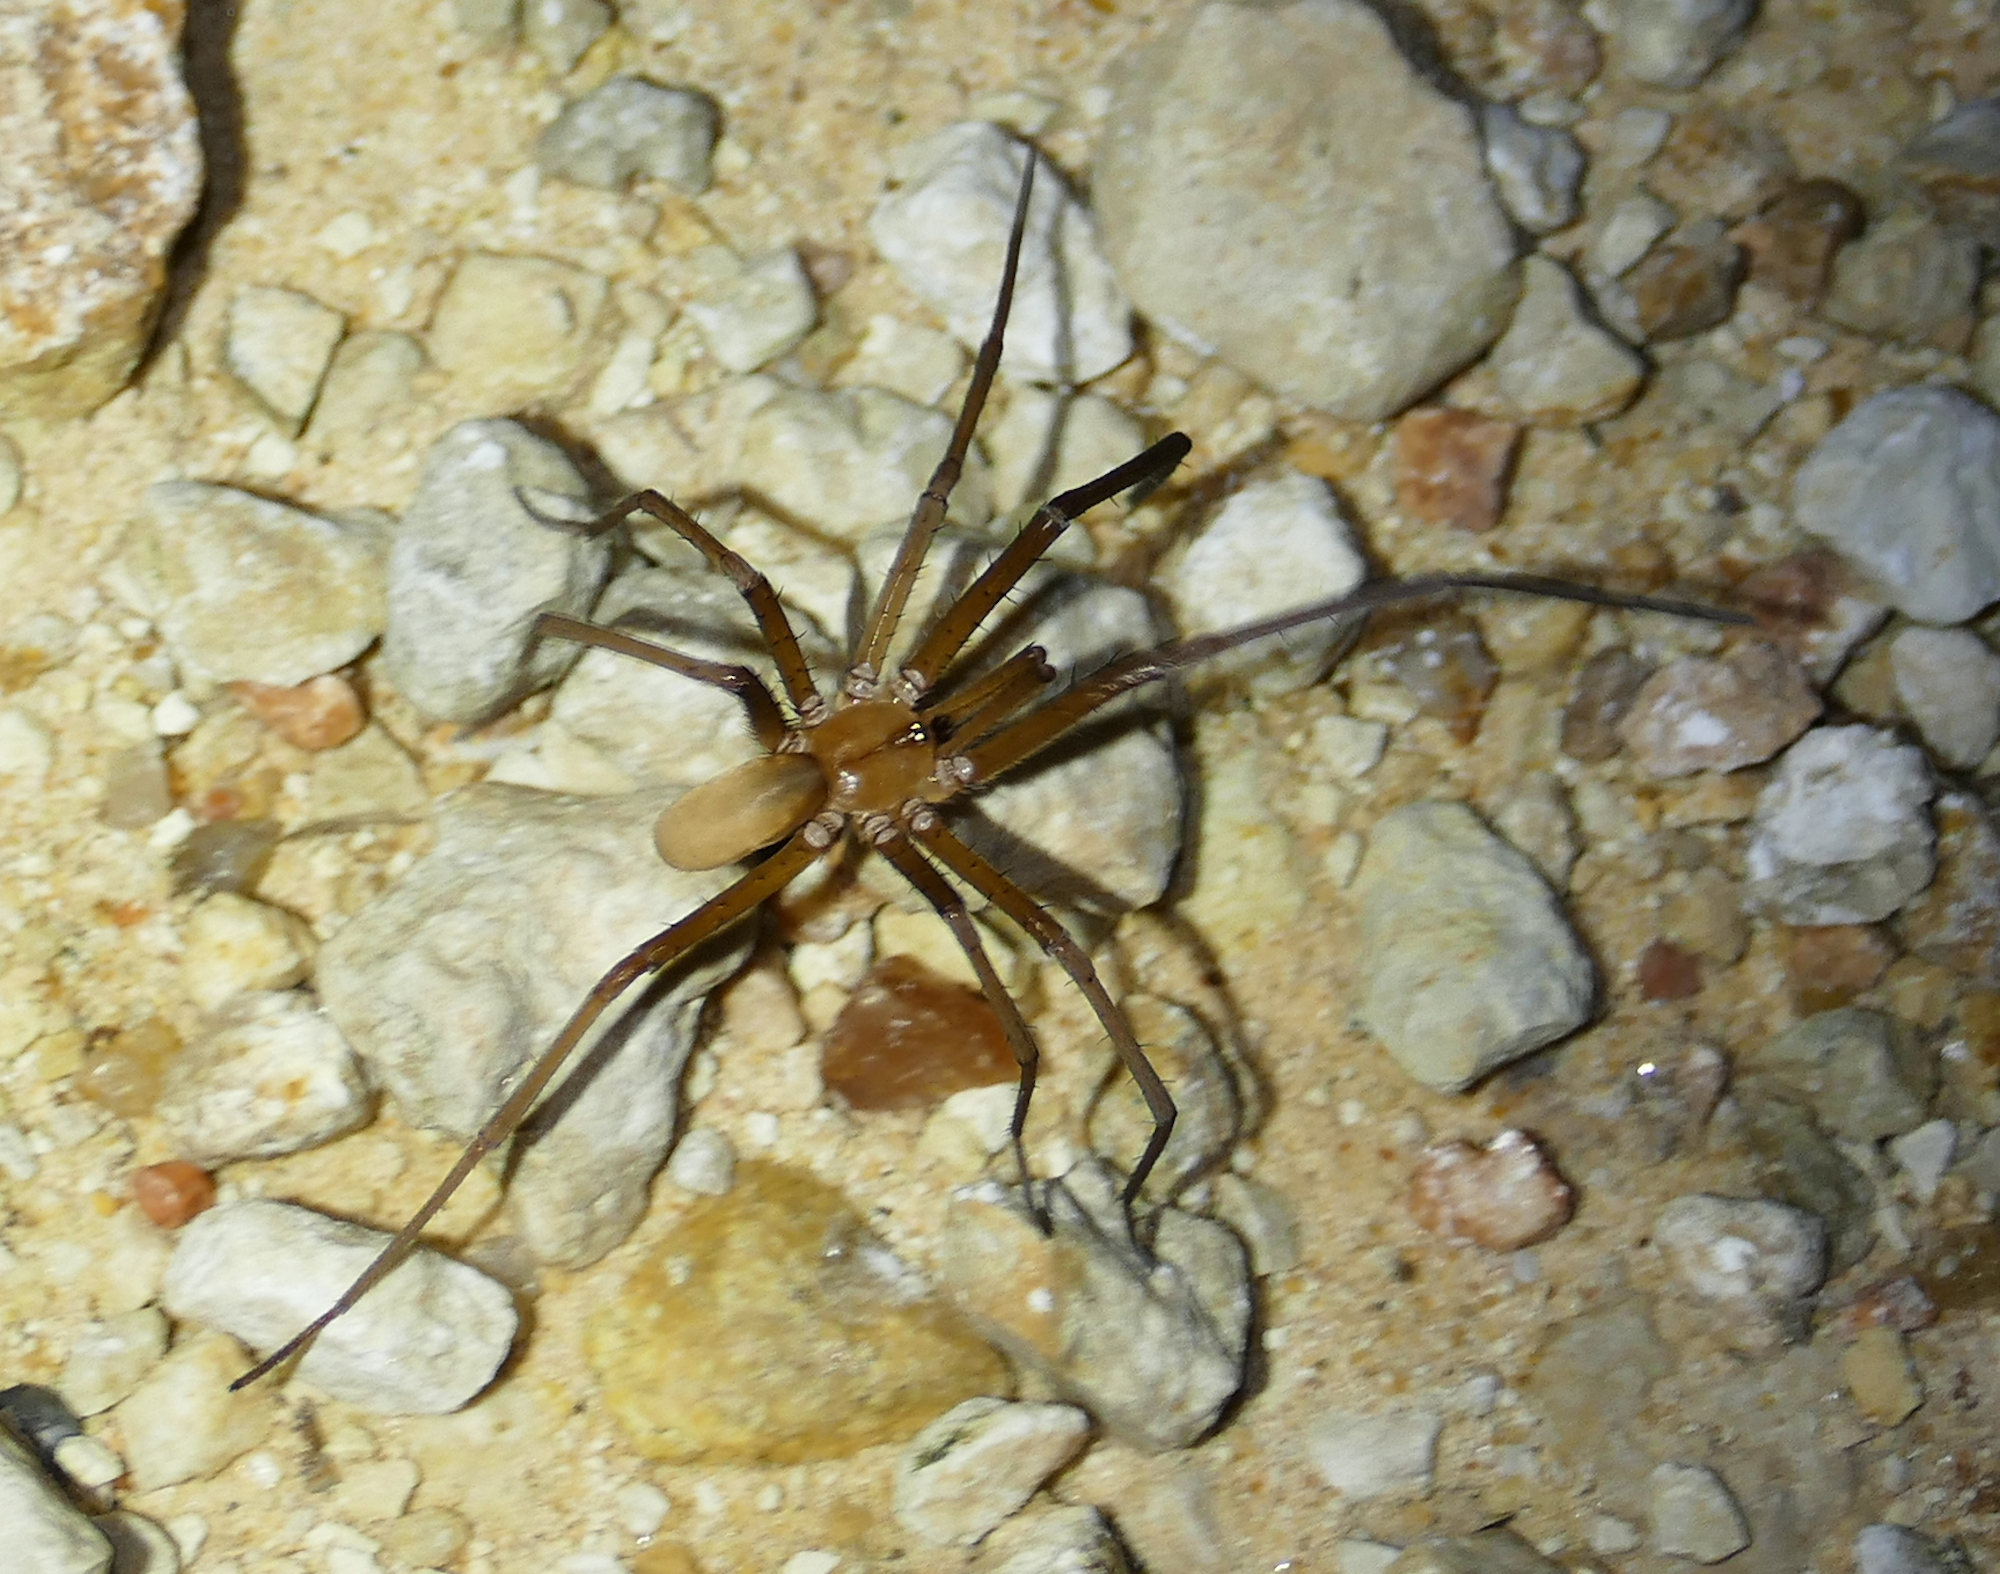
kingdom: Animalia
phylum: Arthropoda
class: Arachnida
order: Araneae
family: Filistatidae
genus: Kukulcania
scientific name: Kukulcania hibernalis
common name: Crevice weaver
